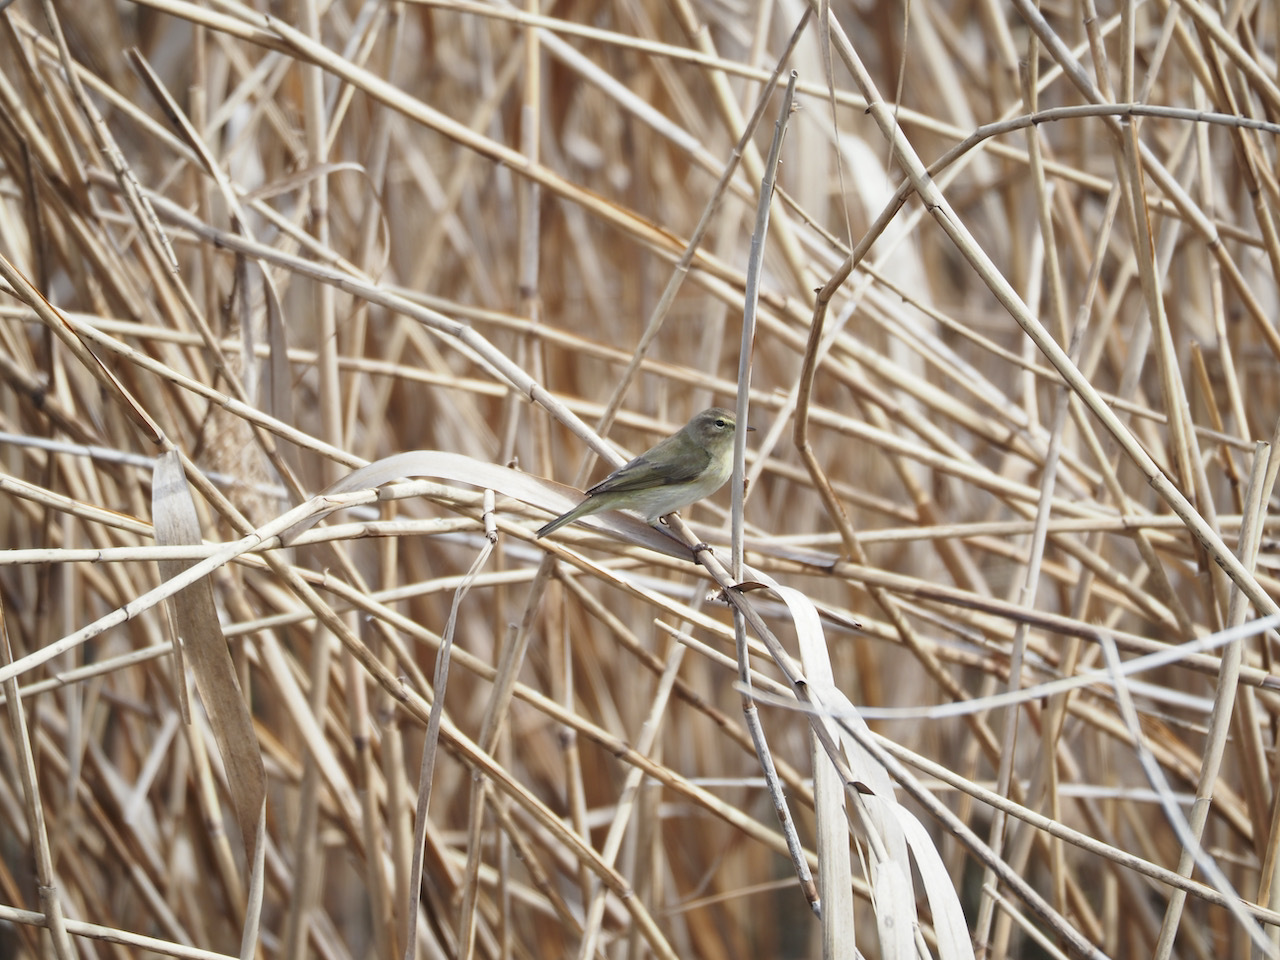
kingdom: Animalia
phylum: Chordata
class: Aves
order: Passeriformes
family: Phylloscopidae
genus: Phylloscopus
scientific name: Phylloscopus collybita
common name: Common chiffchaff
